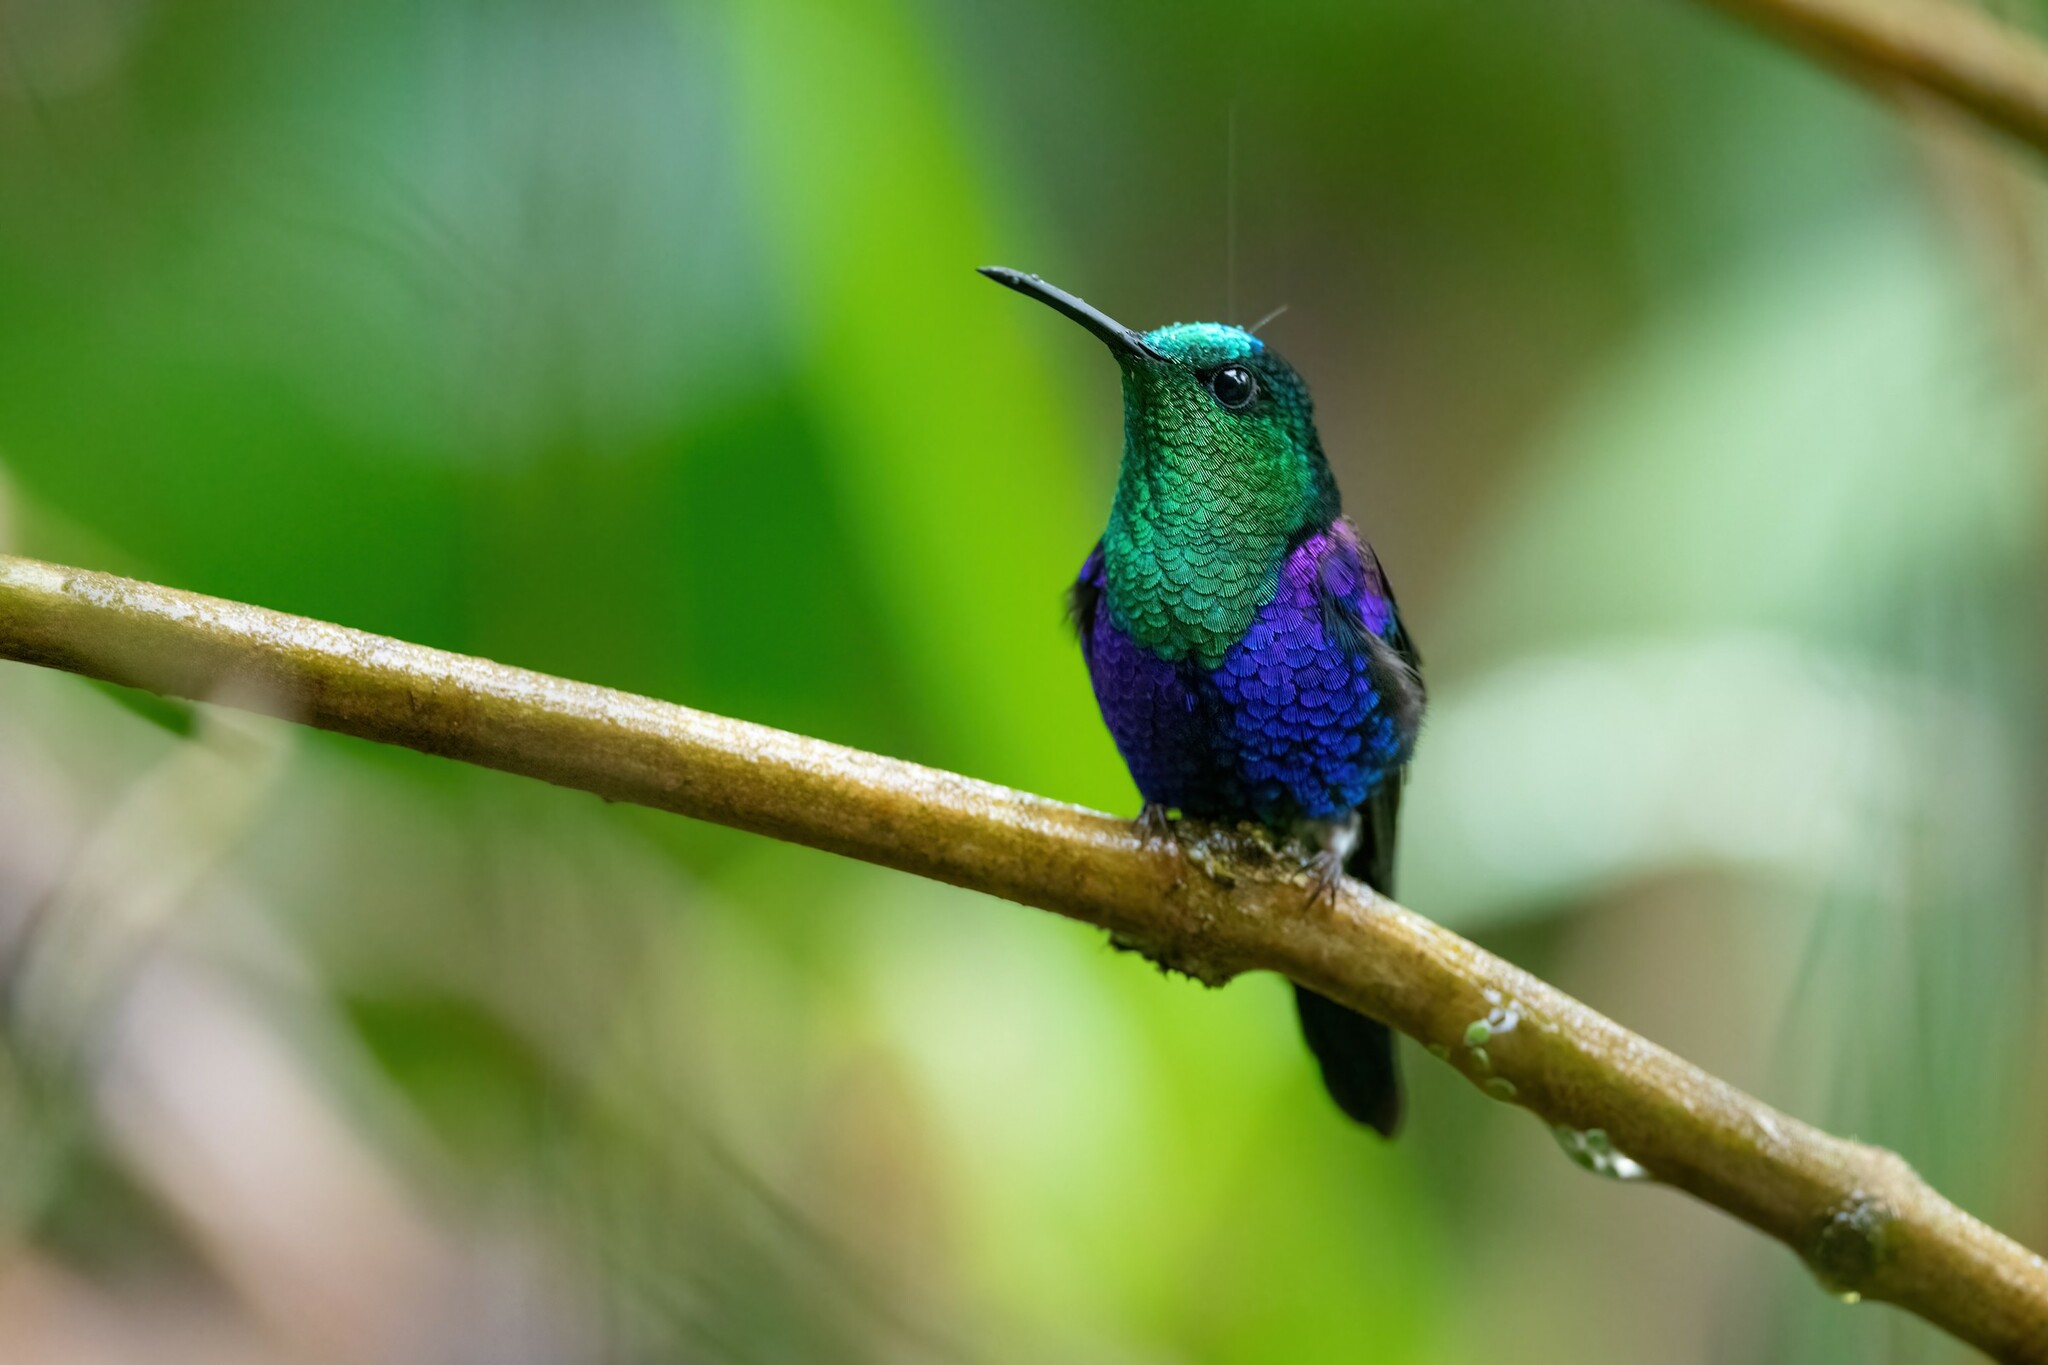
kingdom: Animalia
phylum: Chordata
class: Aves
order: Apodiformes
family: Trochilidae
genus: Thalurania
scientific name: Thalurania colombica
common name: Crowned woodnymph
